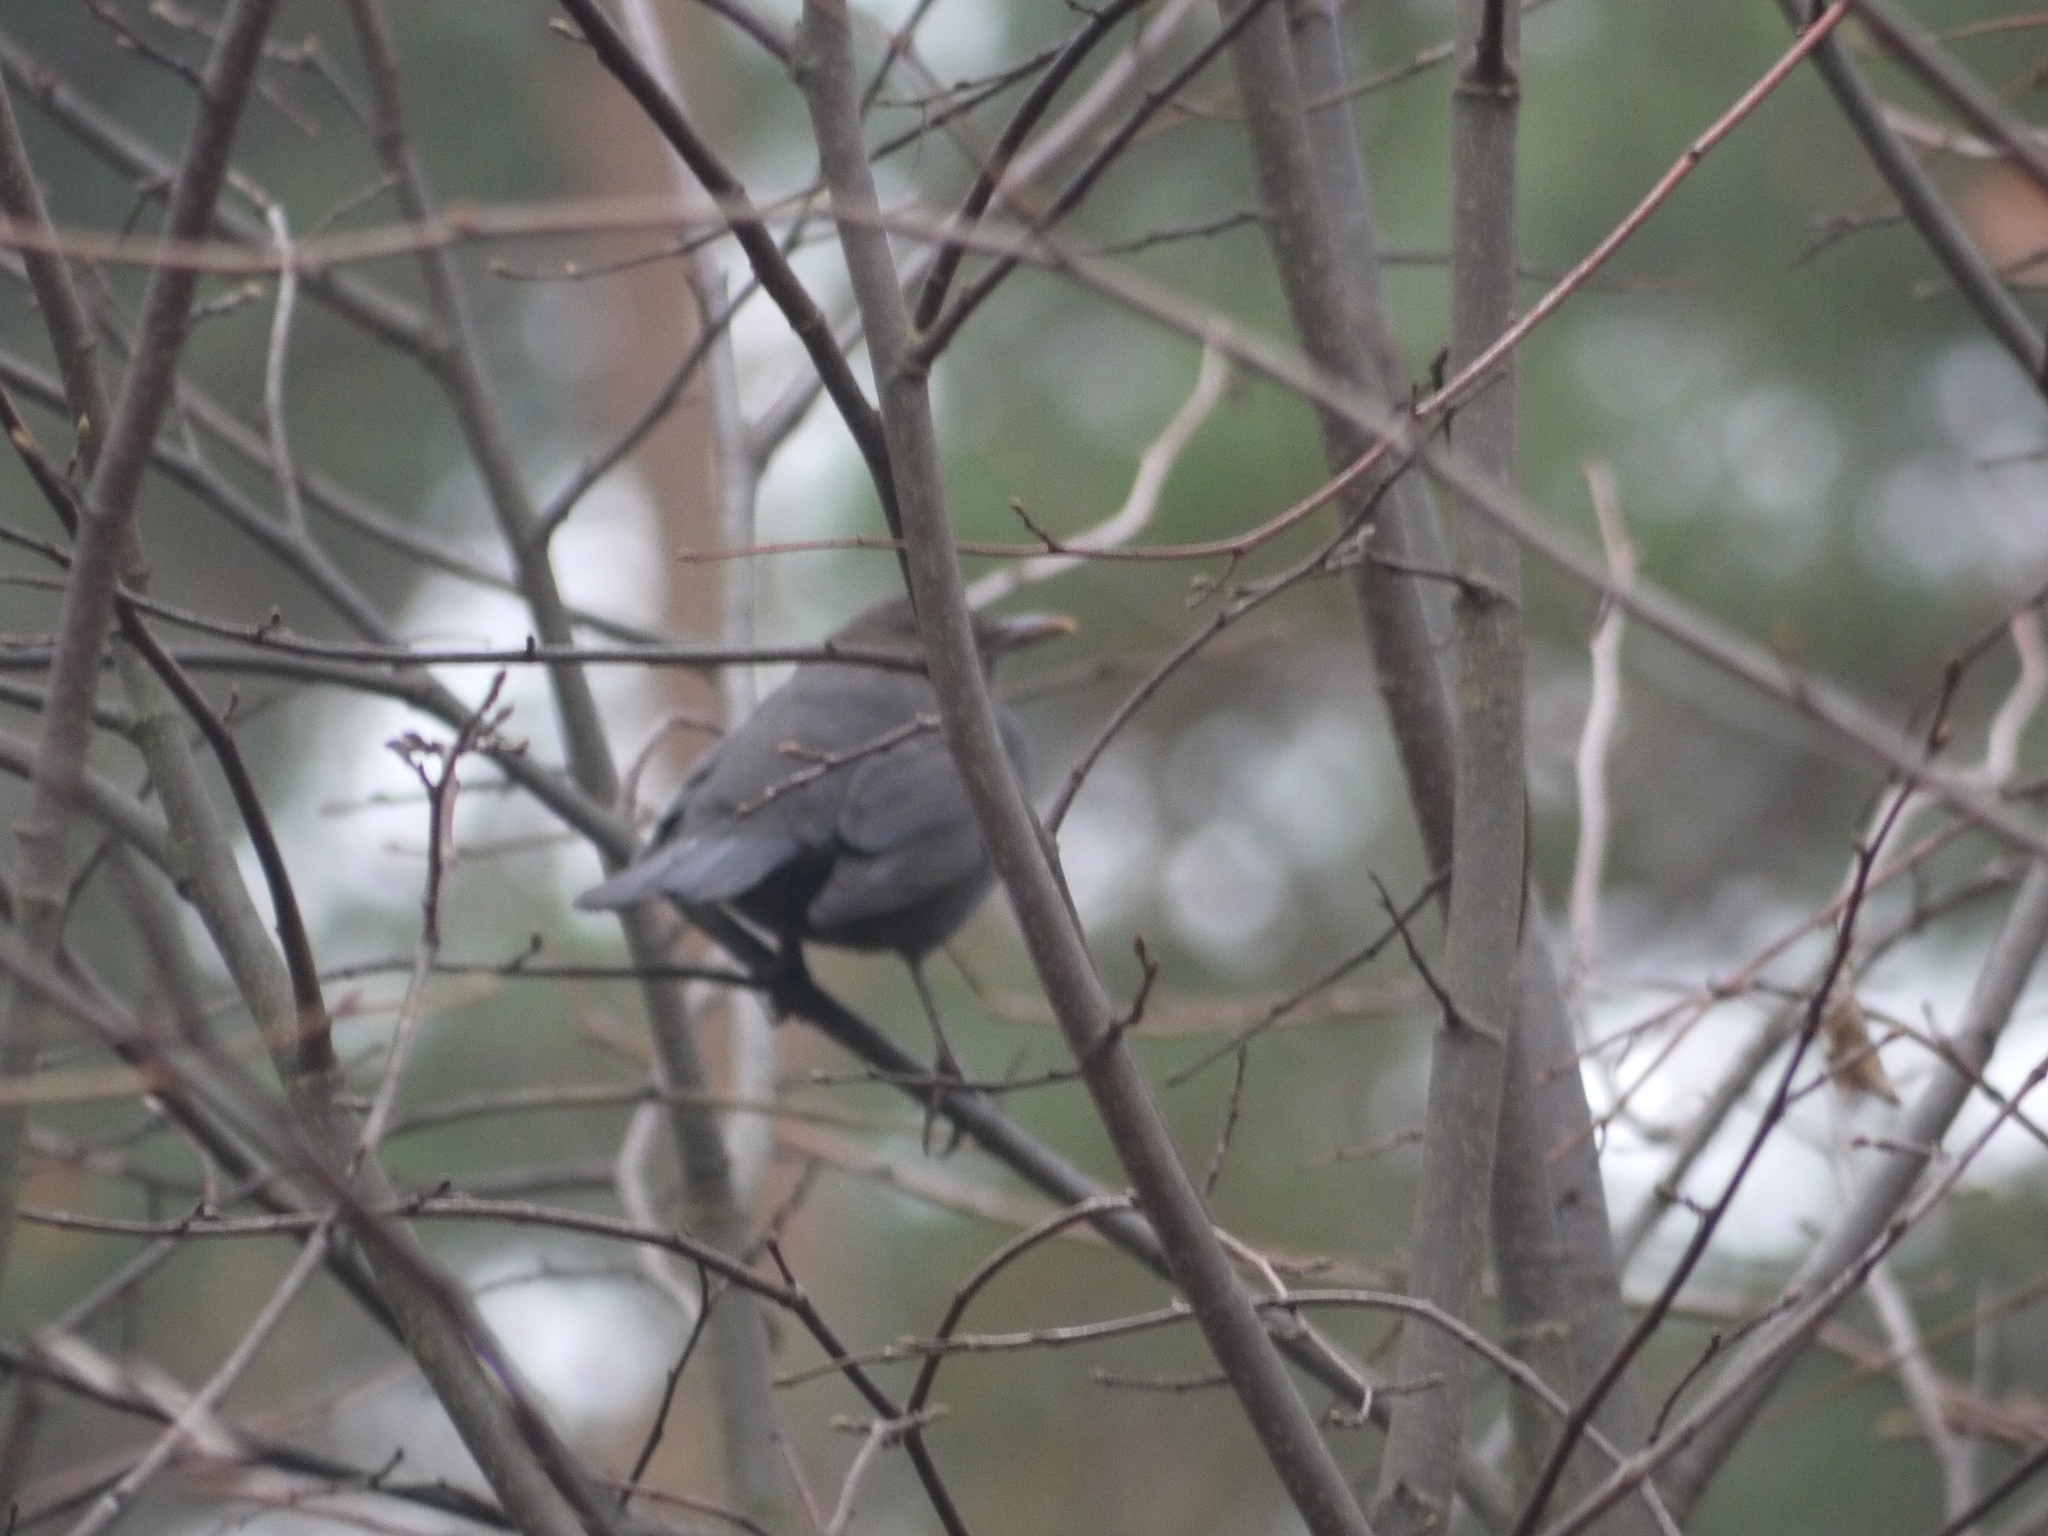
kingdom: Animalia
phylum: Chordata
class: Aves
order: Passeriformes
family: Turdidae
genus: Turdus
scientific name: Turdus merula
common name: Common blackbird
